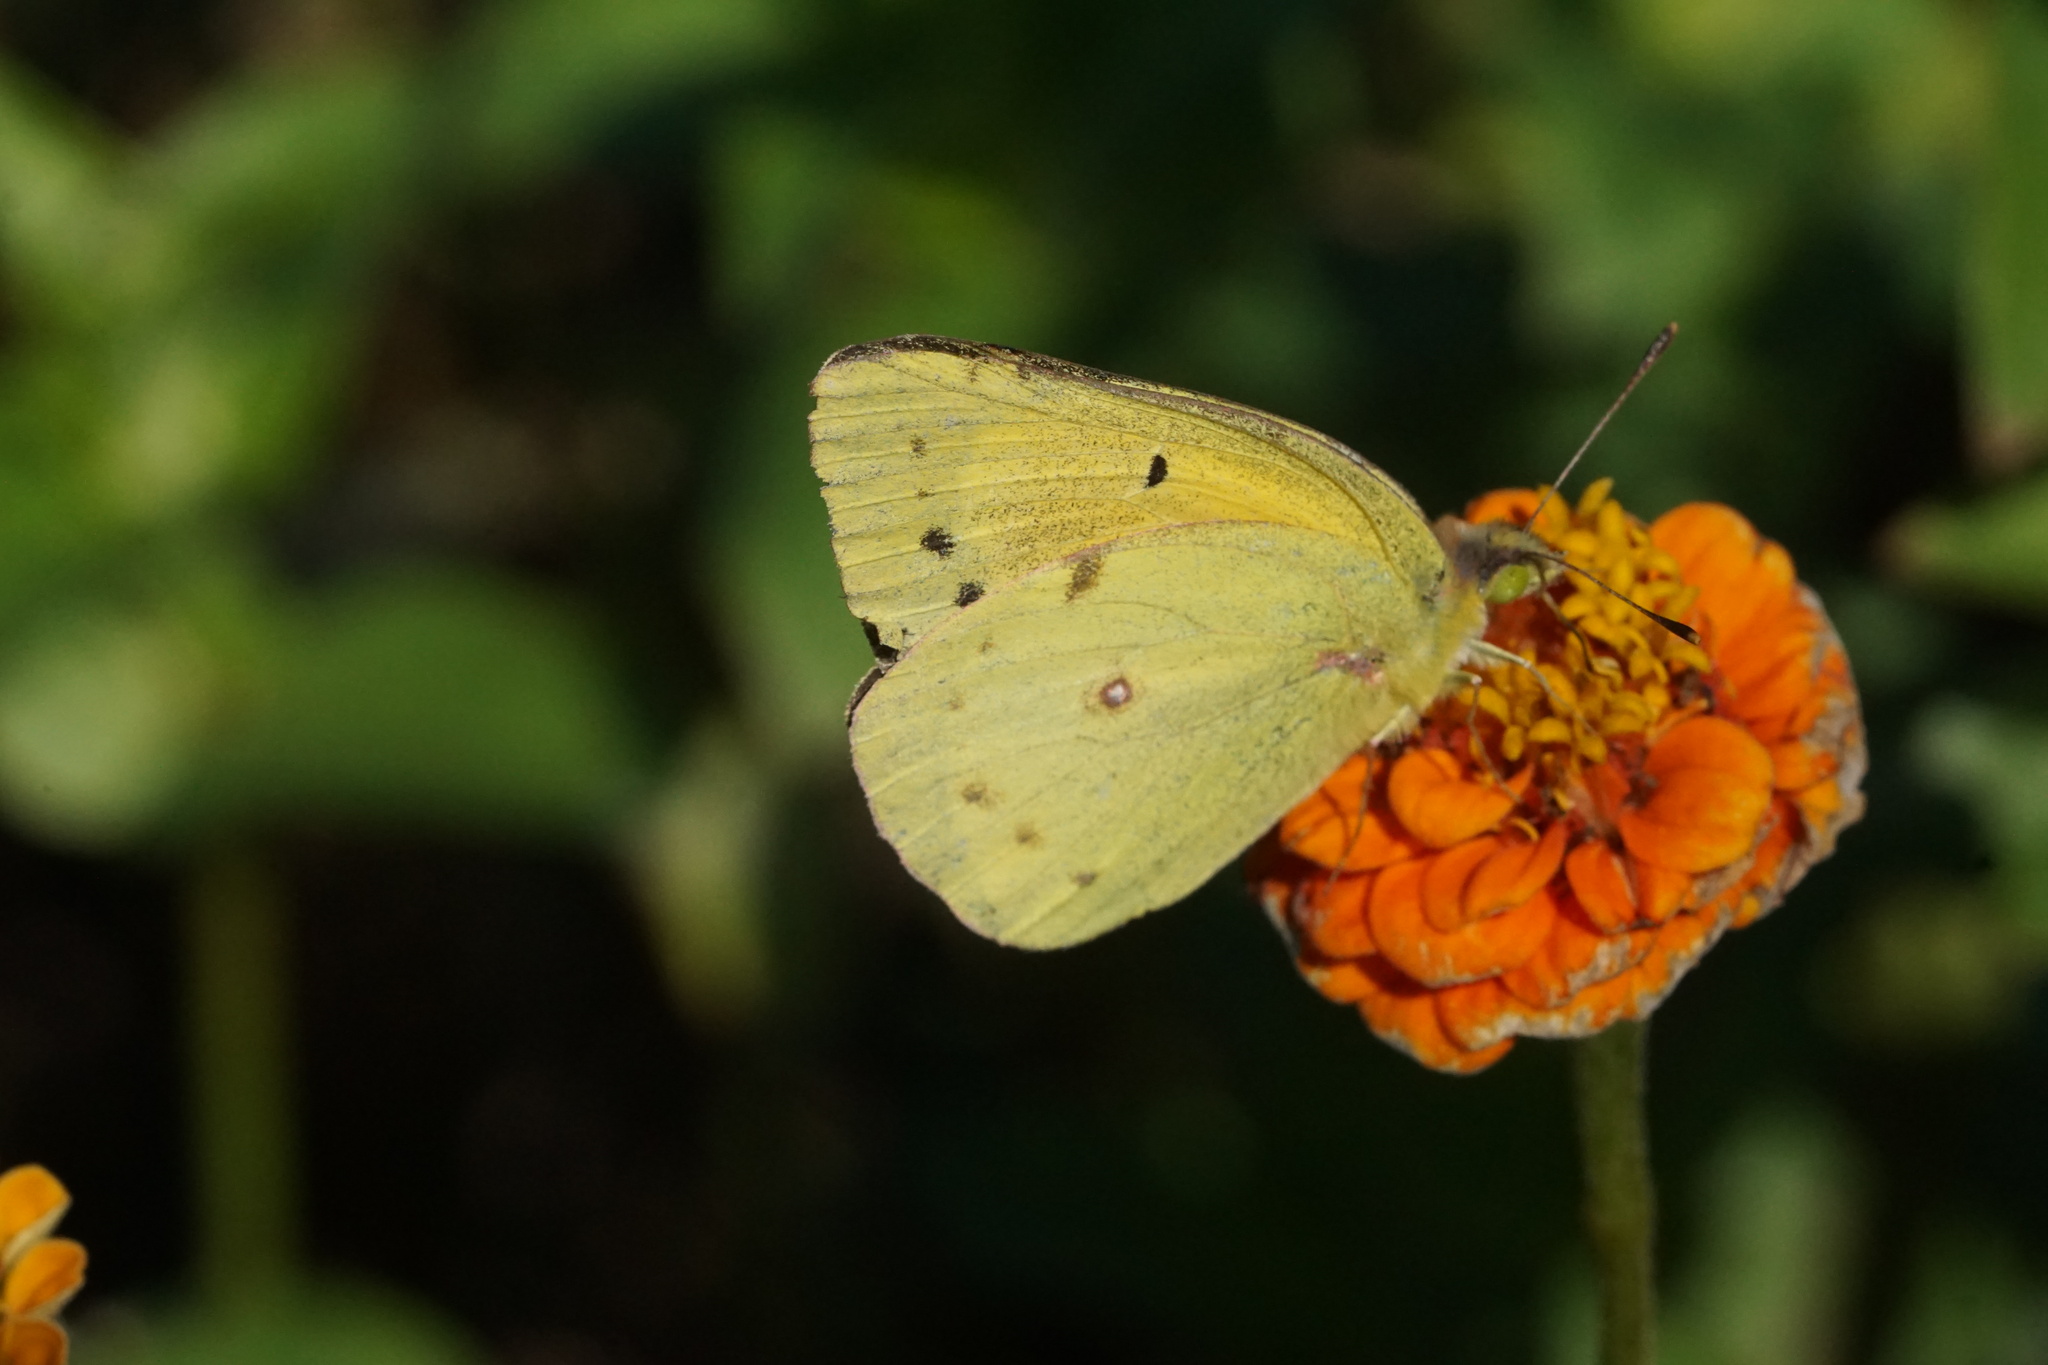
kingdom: Animalia
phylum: Arthropoda
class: Insecta
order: Lepidoptera
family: Pieridae
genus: Colias
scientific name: Colias eurytheme
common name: Alfalfa butterfly
